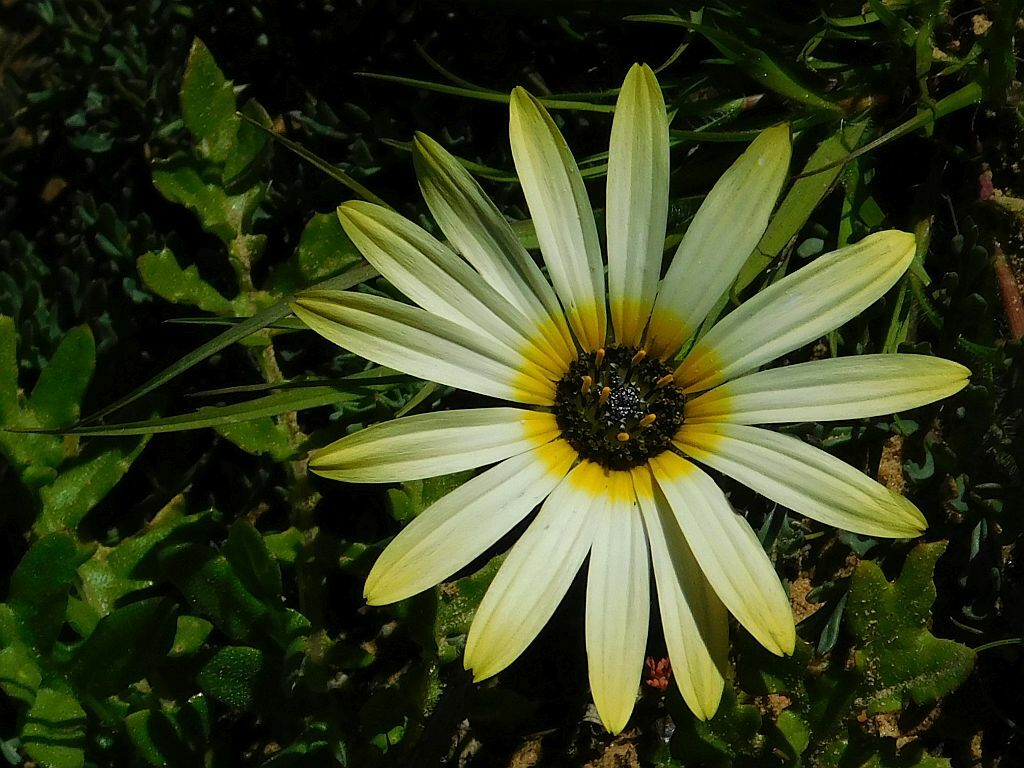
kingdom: Plantae
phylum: Tracheophyta
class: Magnoliopsida
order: Asterales
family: Asteraceae
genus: Arctotheca
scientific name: Arctotheca calendula
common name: Capeweed
